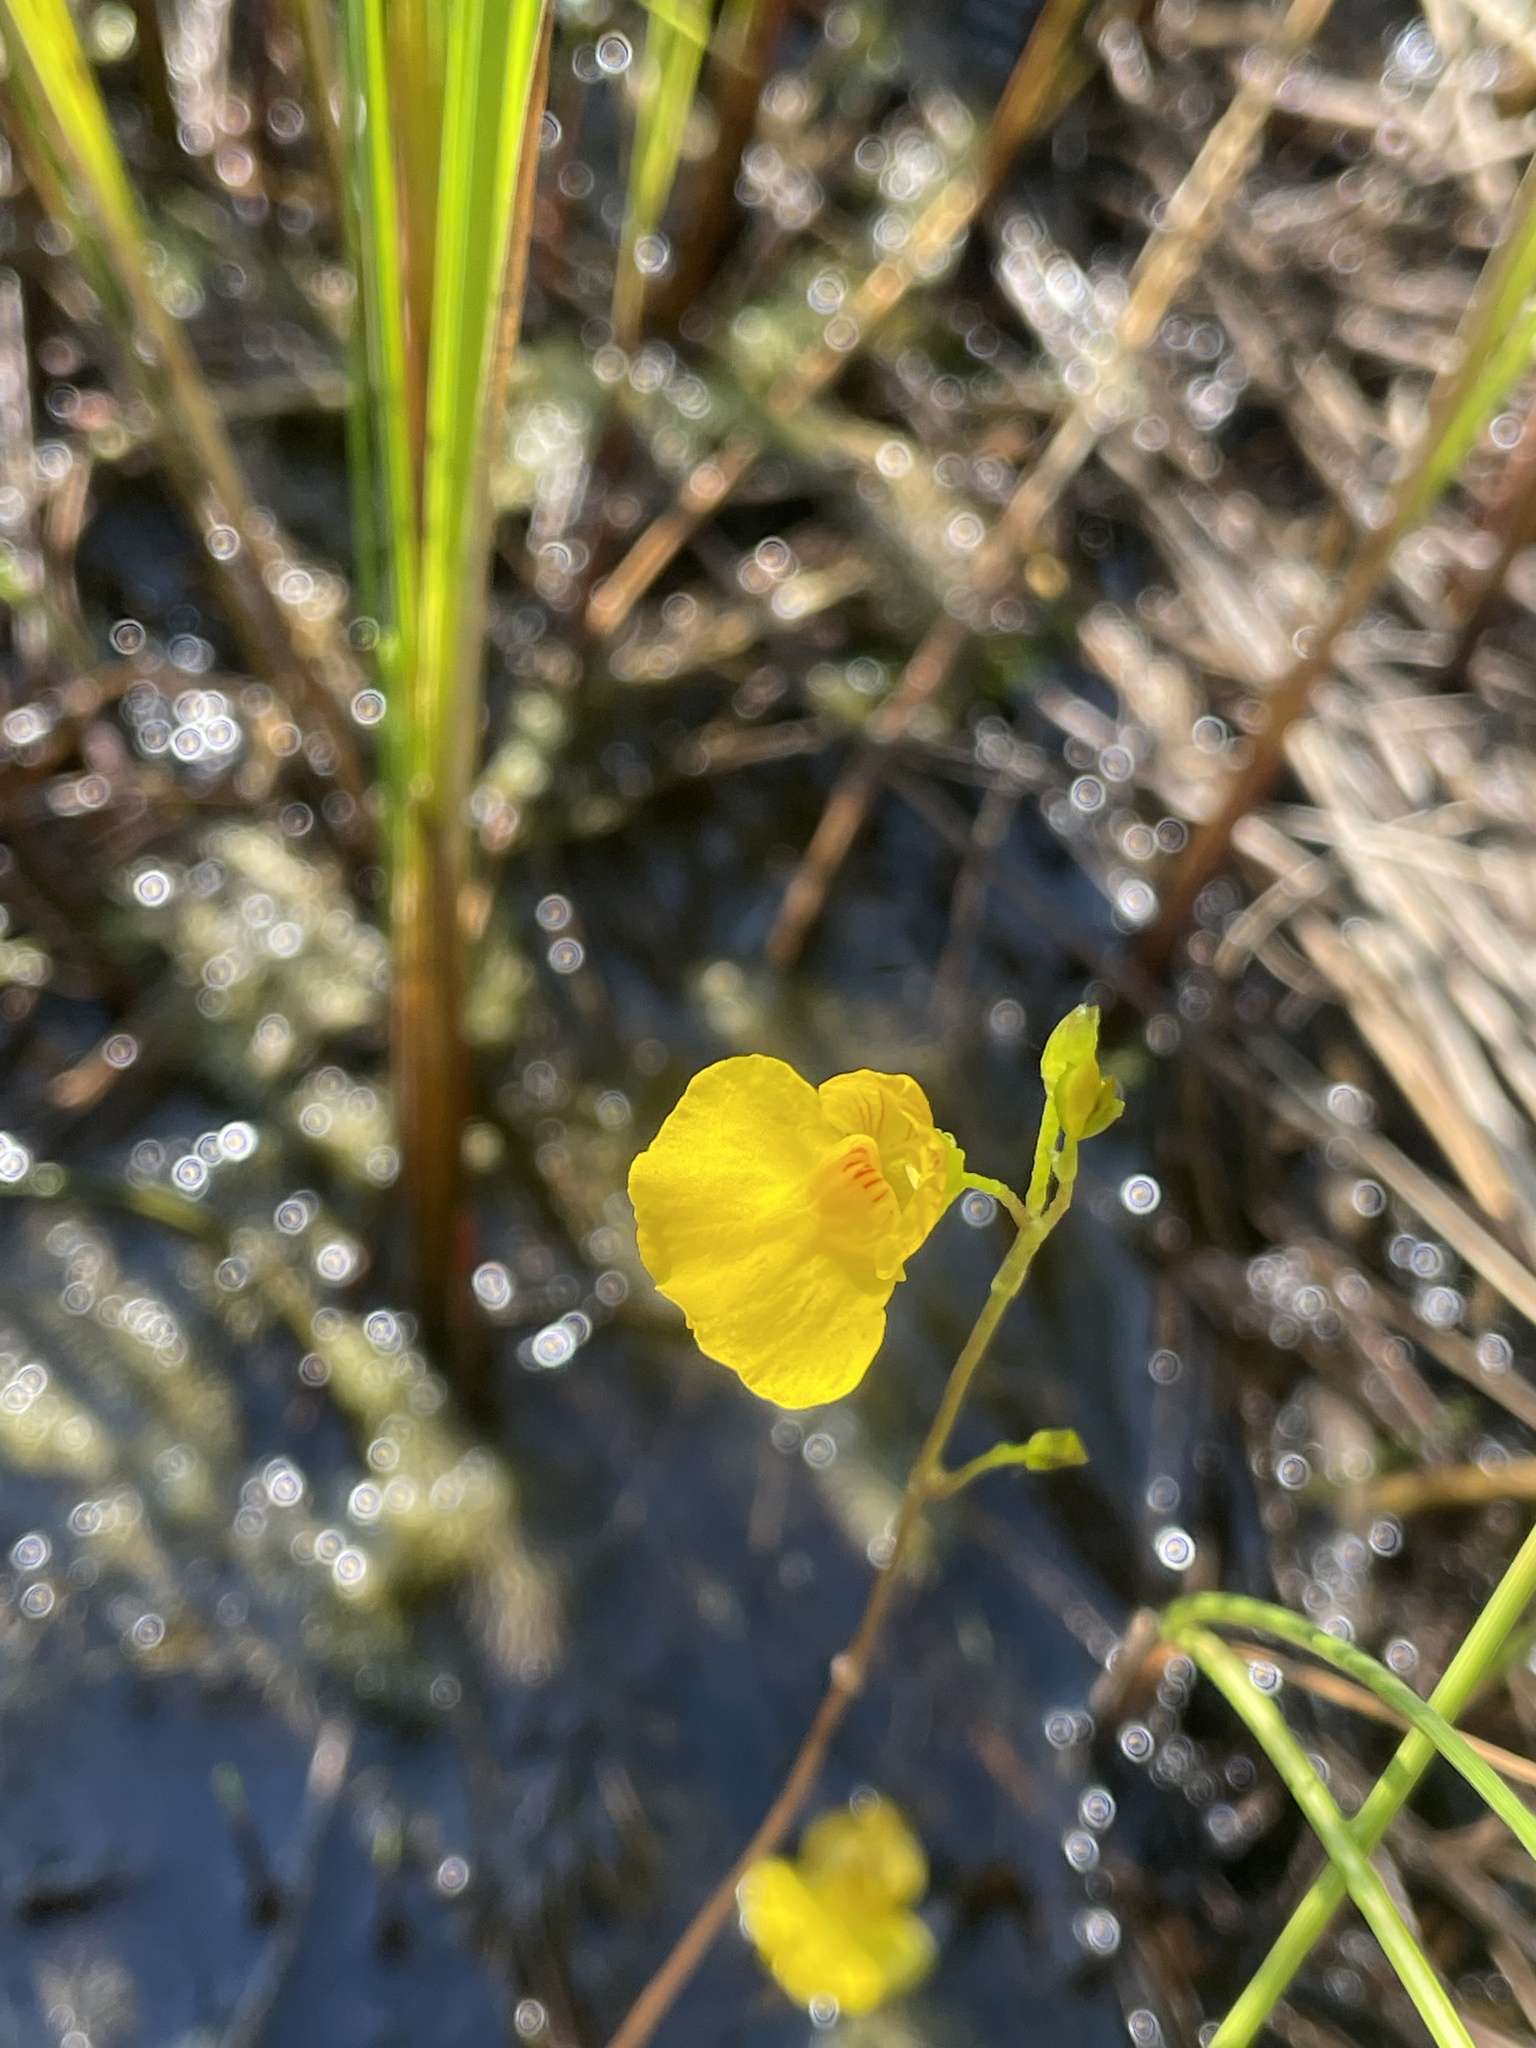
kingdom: Plantae
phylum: Tracheophyta
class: Magnoliopsida
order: Lamiales
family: Lentibulariaceae
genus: Utricularia
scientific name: Utricularia intermedia
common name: Intermediate bladderwort
